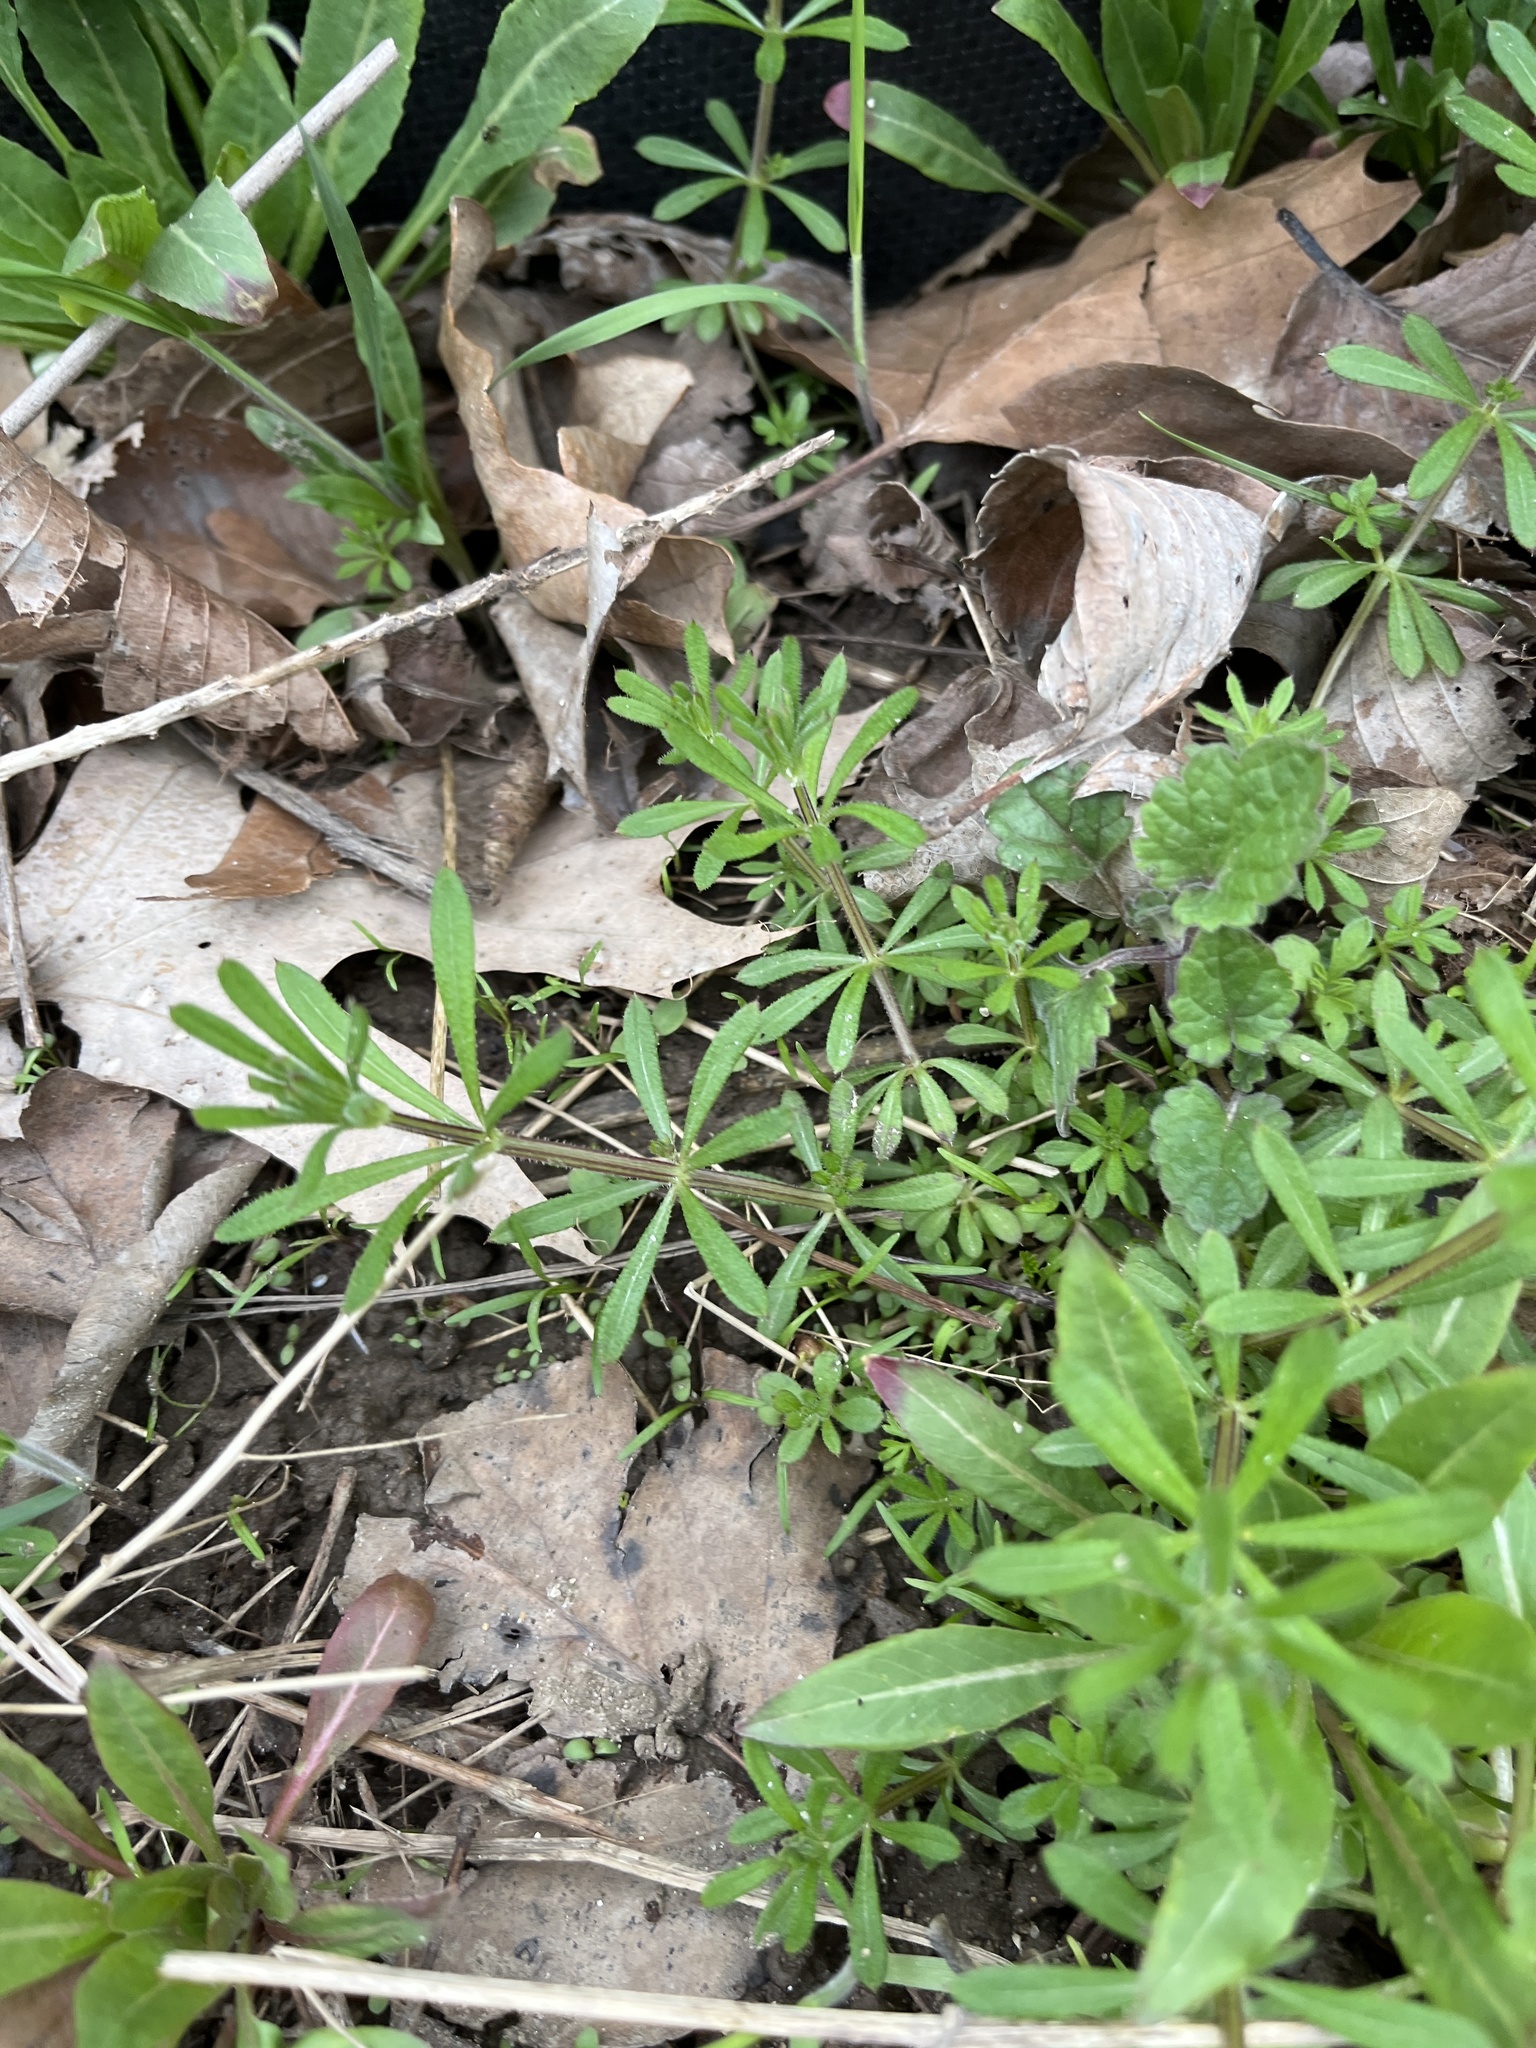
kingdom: Plantae
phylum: Tracheophyta
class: Magnoliopsida
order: Gentianales
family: Rubiaceae
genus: Galium
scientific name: Galium aparine
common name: Cleavers
